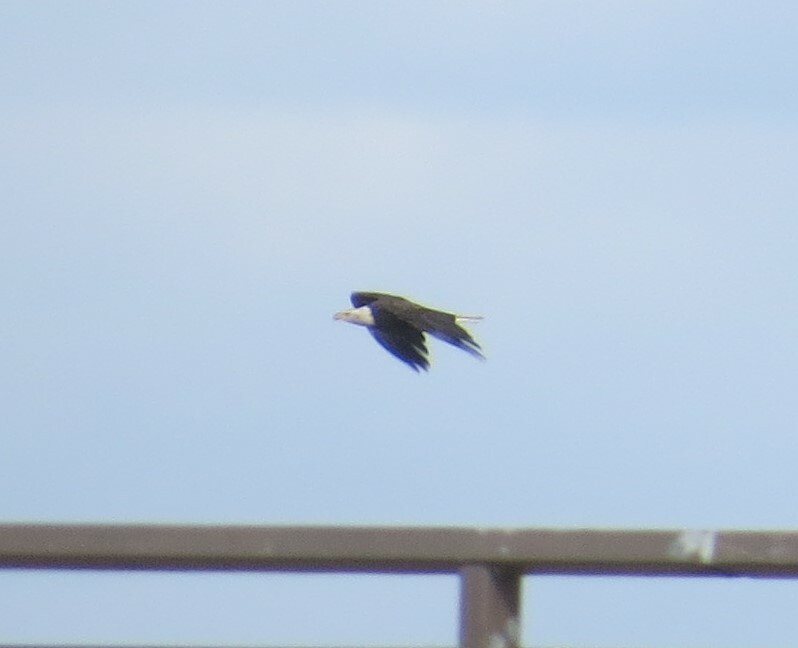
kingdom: Animalia
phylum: Chordata
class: Aves
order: Accipitriformes
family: Accipitridae
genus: Haliaeetus
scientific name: Haliaeetus leucocephalus
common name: Bald eagle
